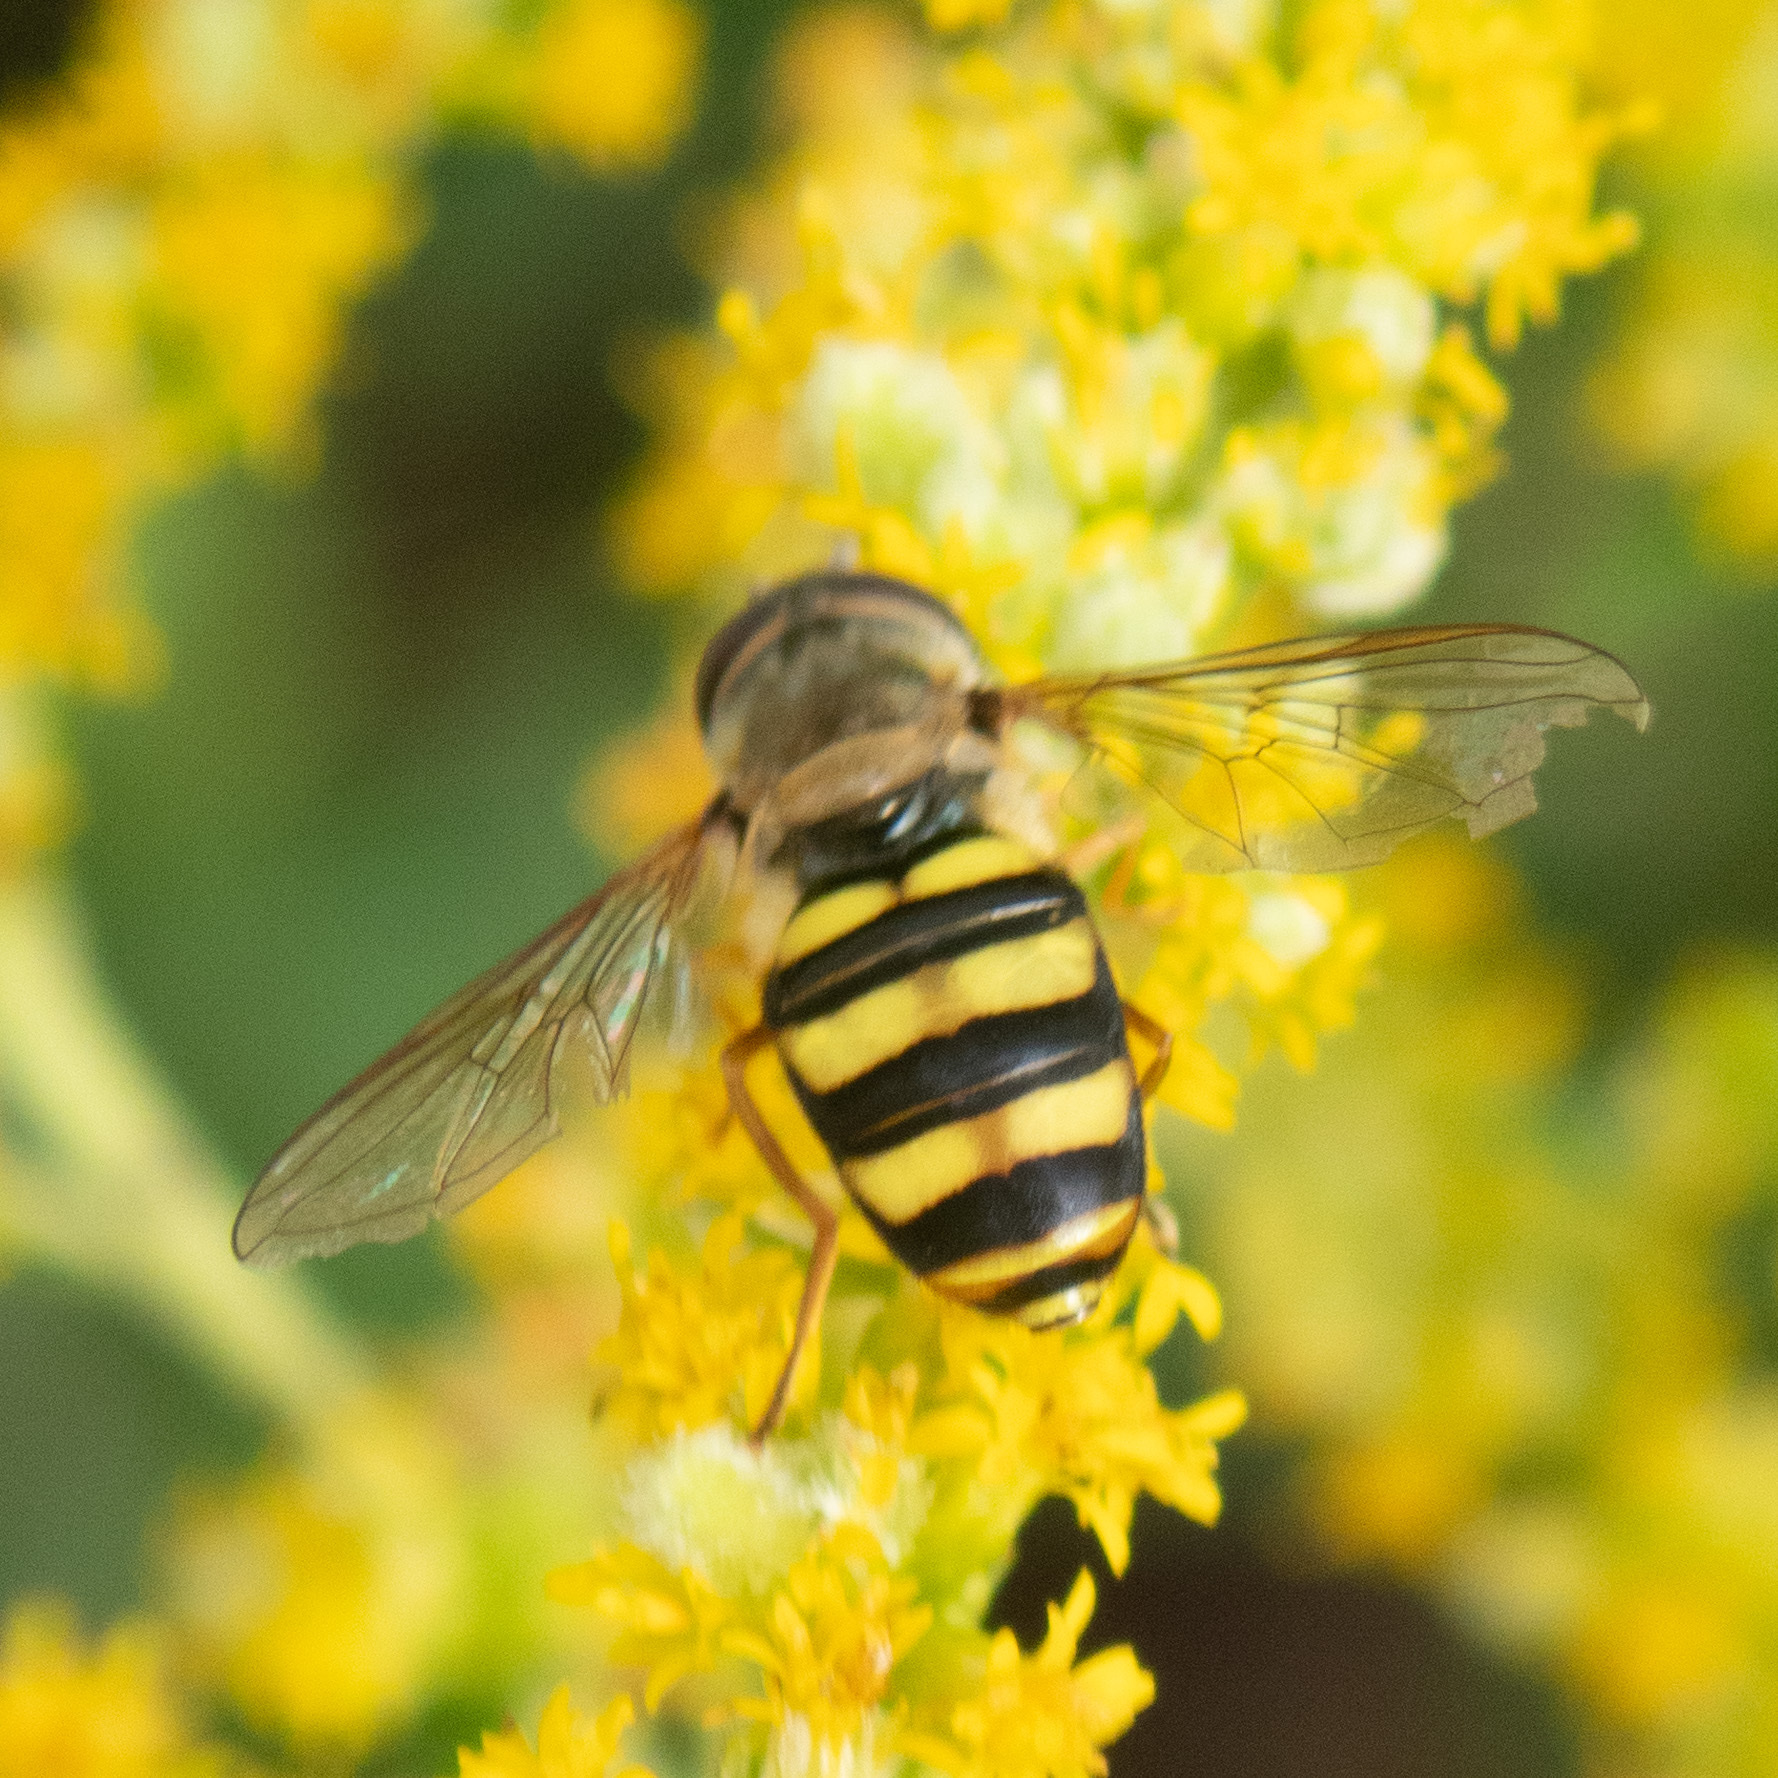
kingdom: Animalia
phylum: Arthropoda
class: Insecta
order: Diptera
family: Syrphidae
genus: Eupeodes
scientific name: Eupeodes
